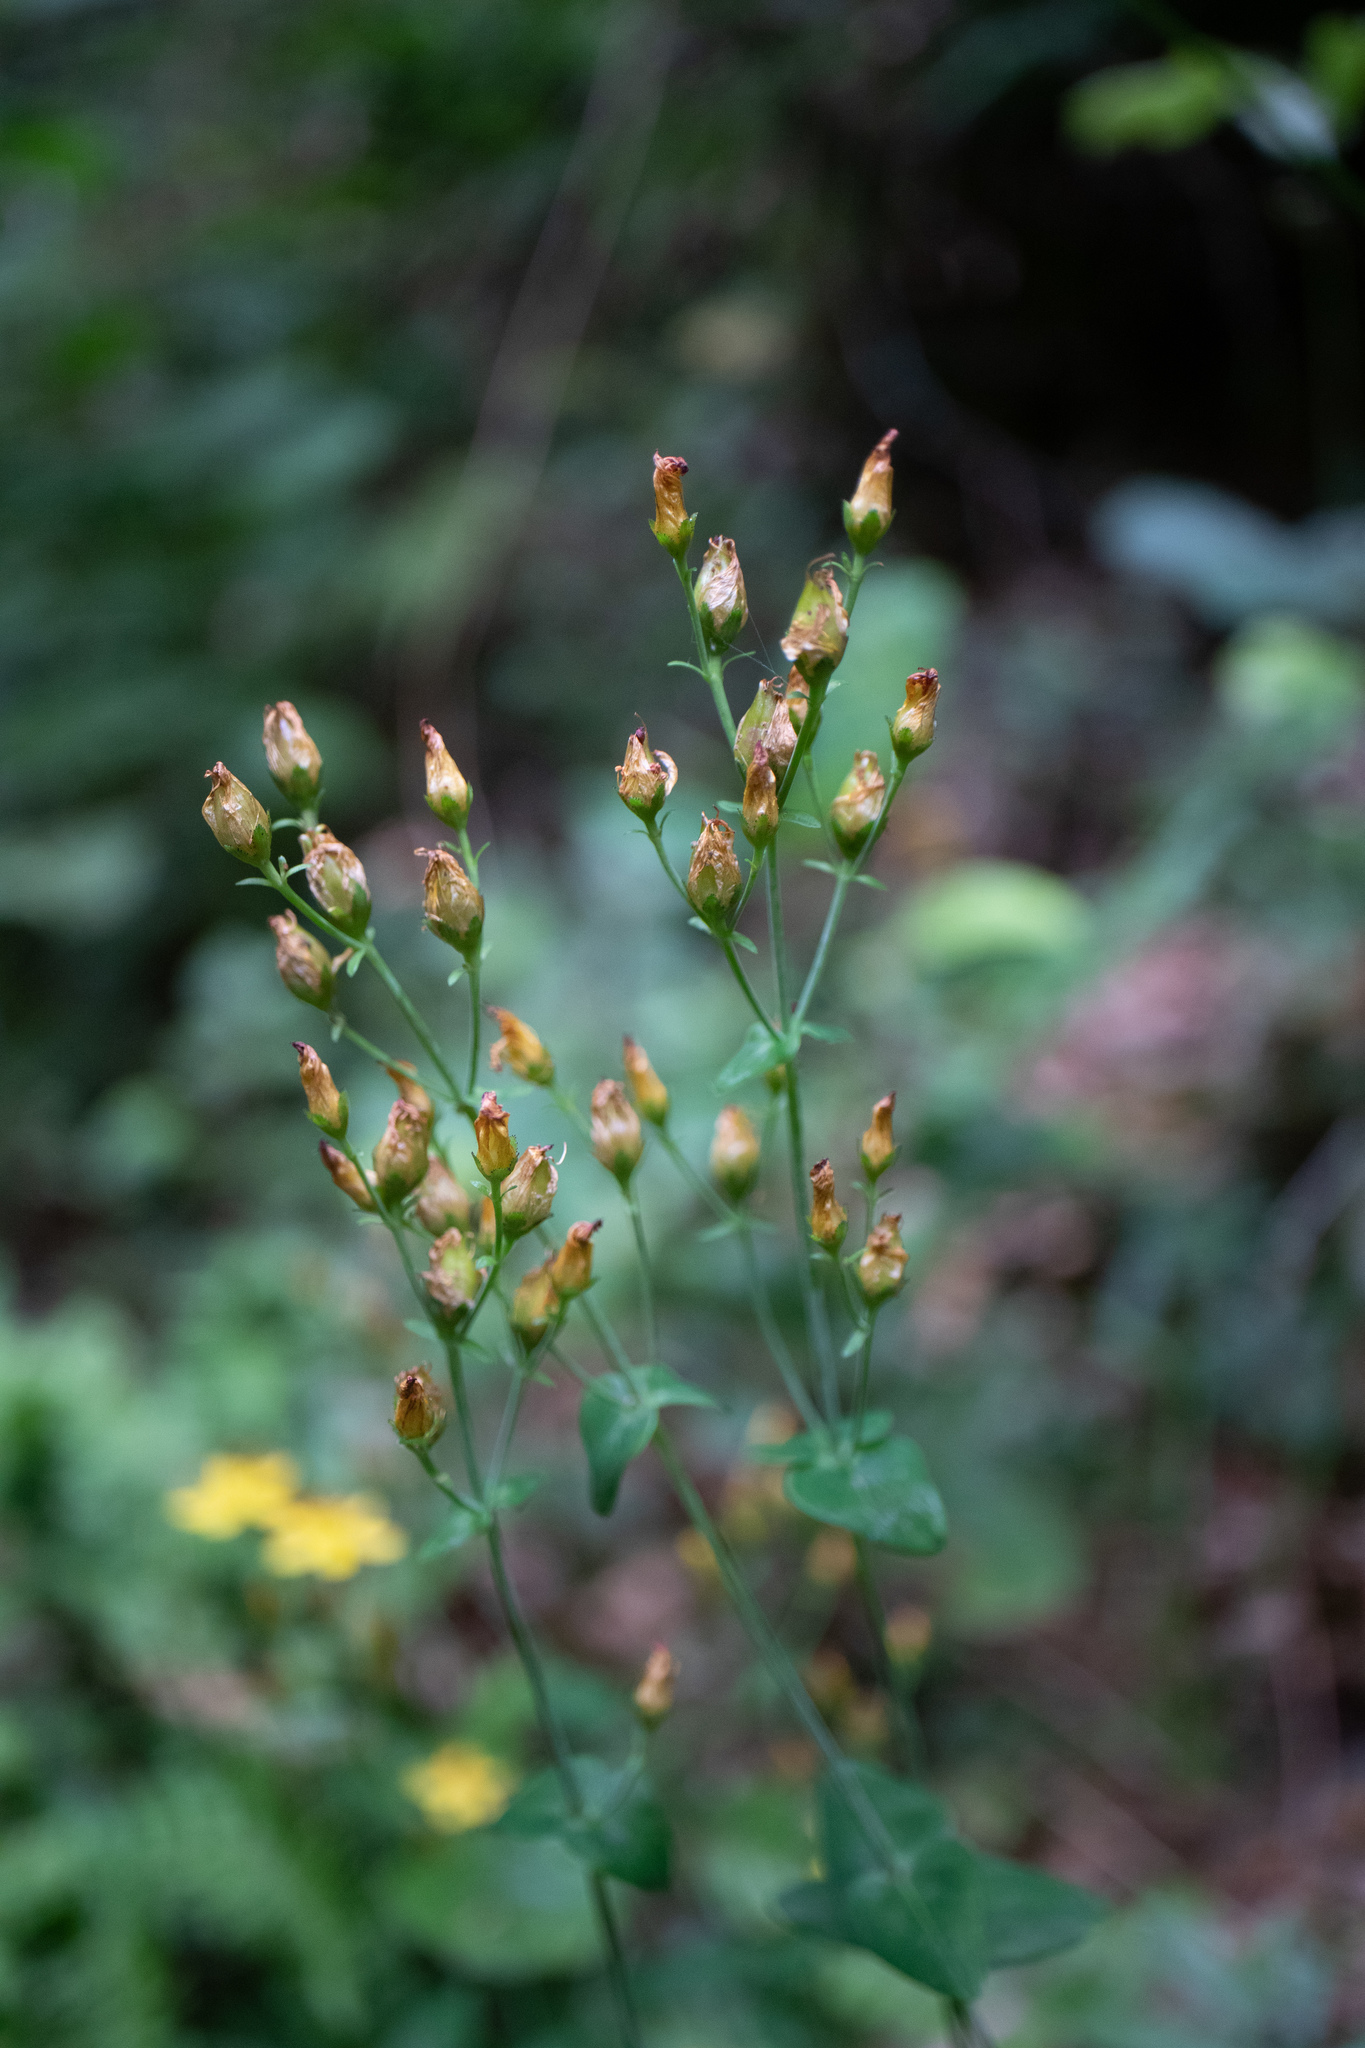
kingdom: Plantae
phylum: Tracheophyta
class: Magnoliopsida
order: Malpighiales
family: Hypericaceae
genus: Hypericum
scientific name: Hypericum pulchrum
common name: Slender st. john's-wort
